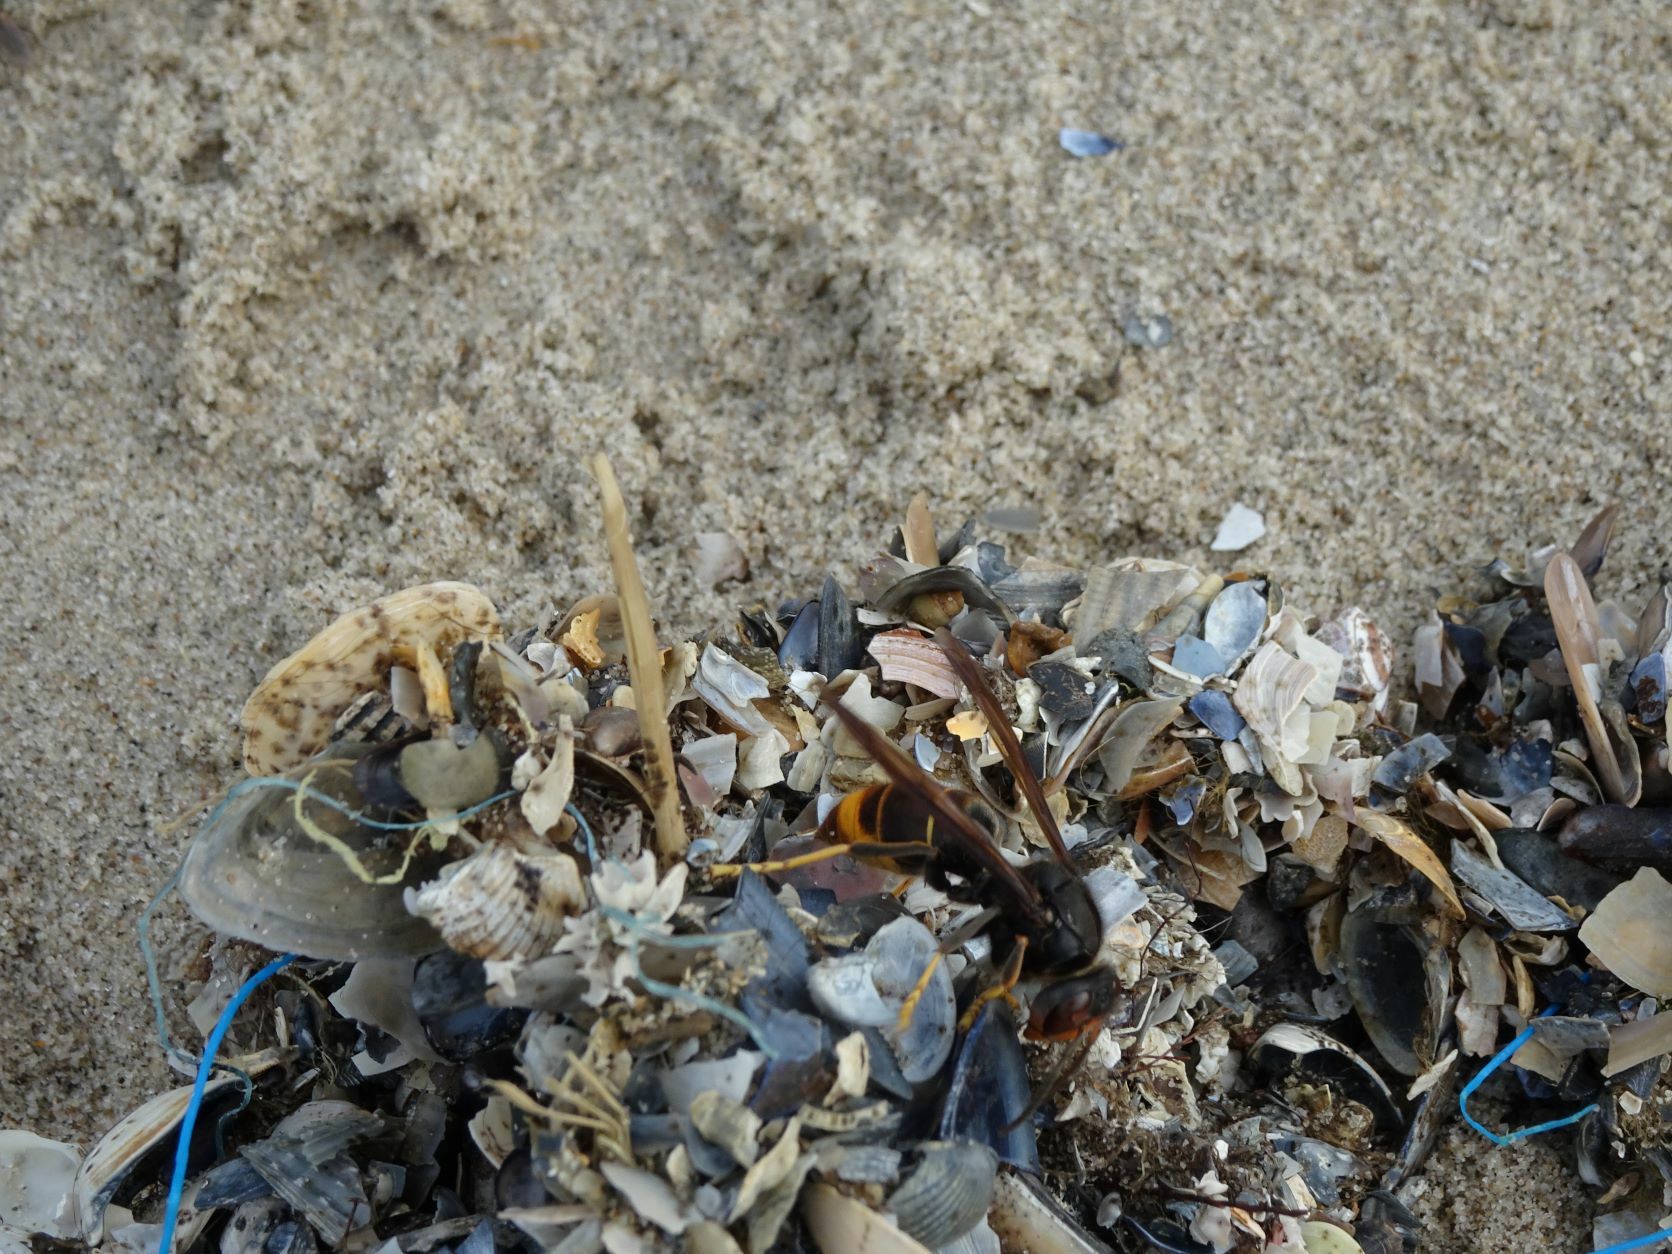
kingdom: Animalia
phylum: Arthropoda
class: Insecta
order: Hymenoptera
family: Vespidae
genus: Vespa
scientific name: Vespa velutina
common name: Asian hornet
